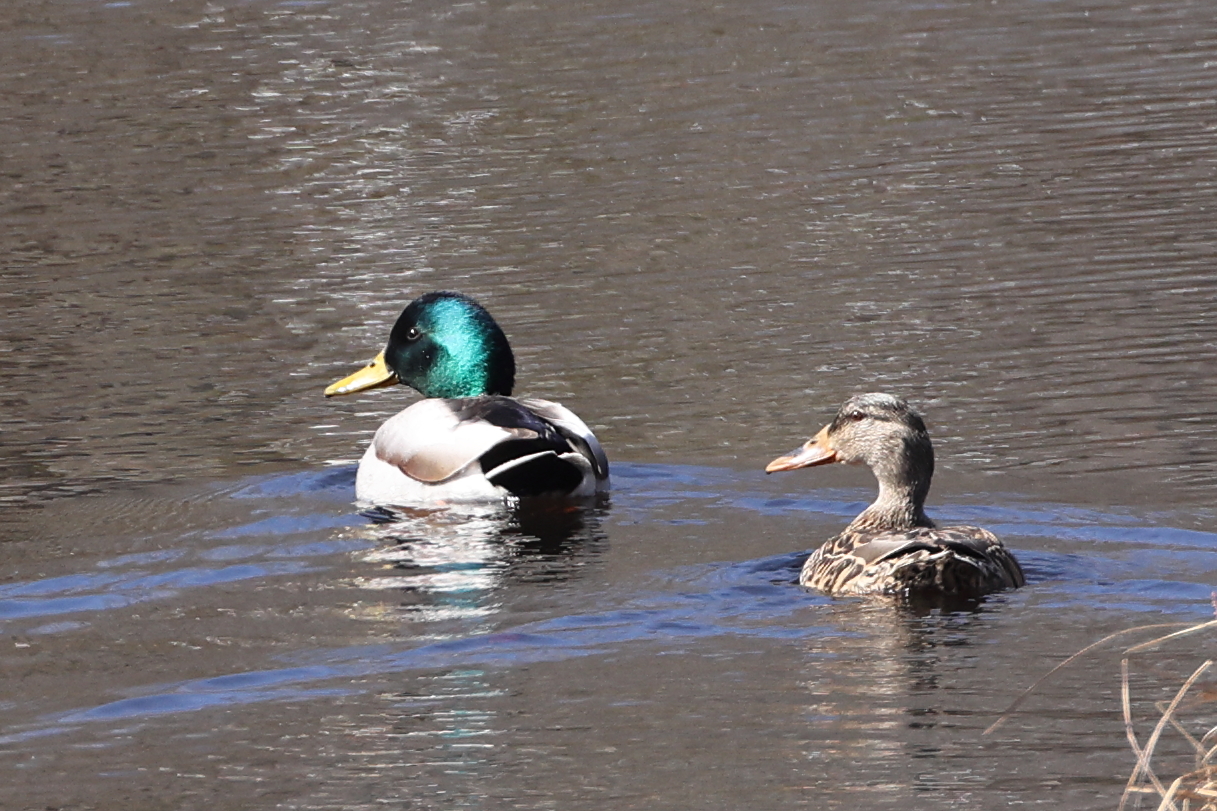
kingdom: Animalia
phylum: Chordata
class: Aves
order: Anseriformes
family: Anatidae
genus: Anas
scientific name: Anas platyrhynchos
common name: Mallard
